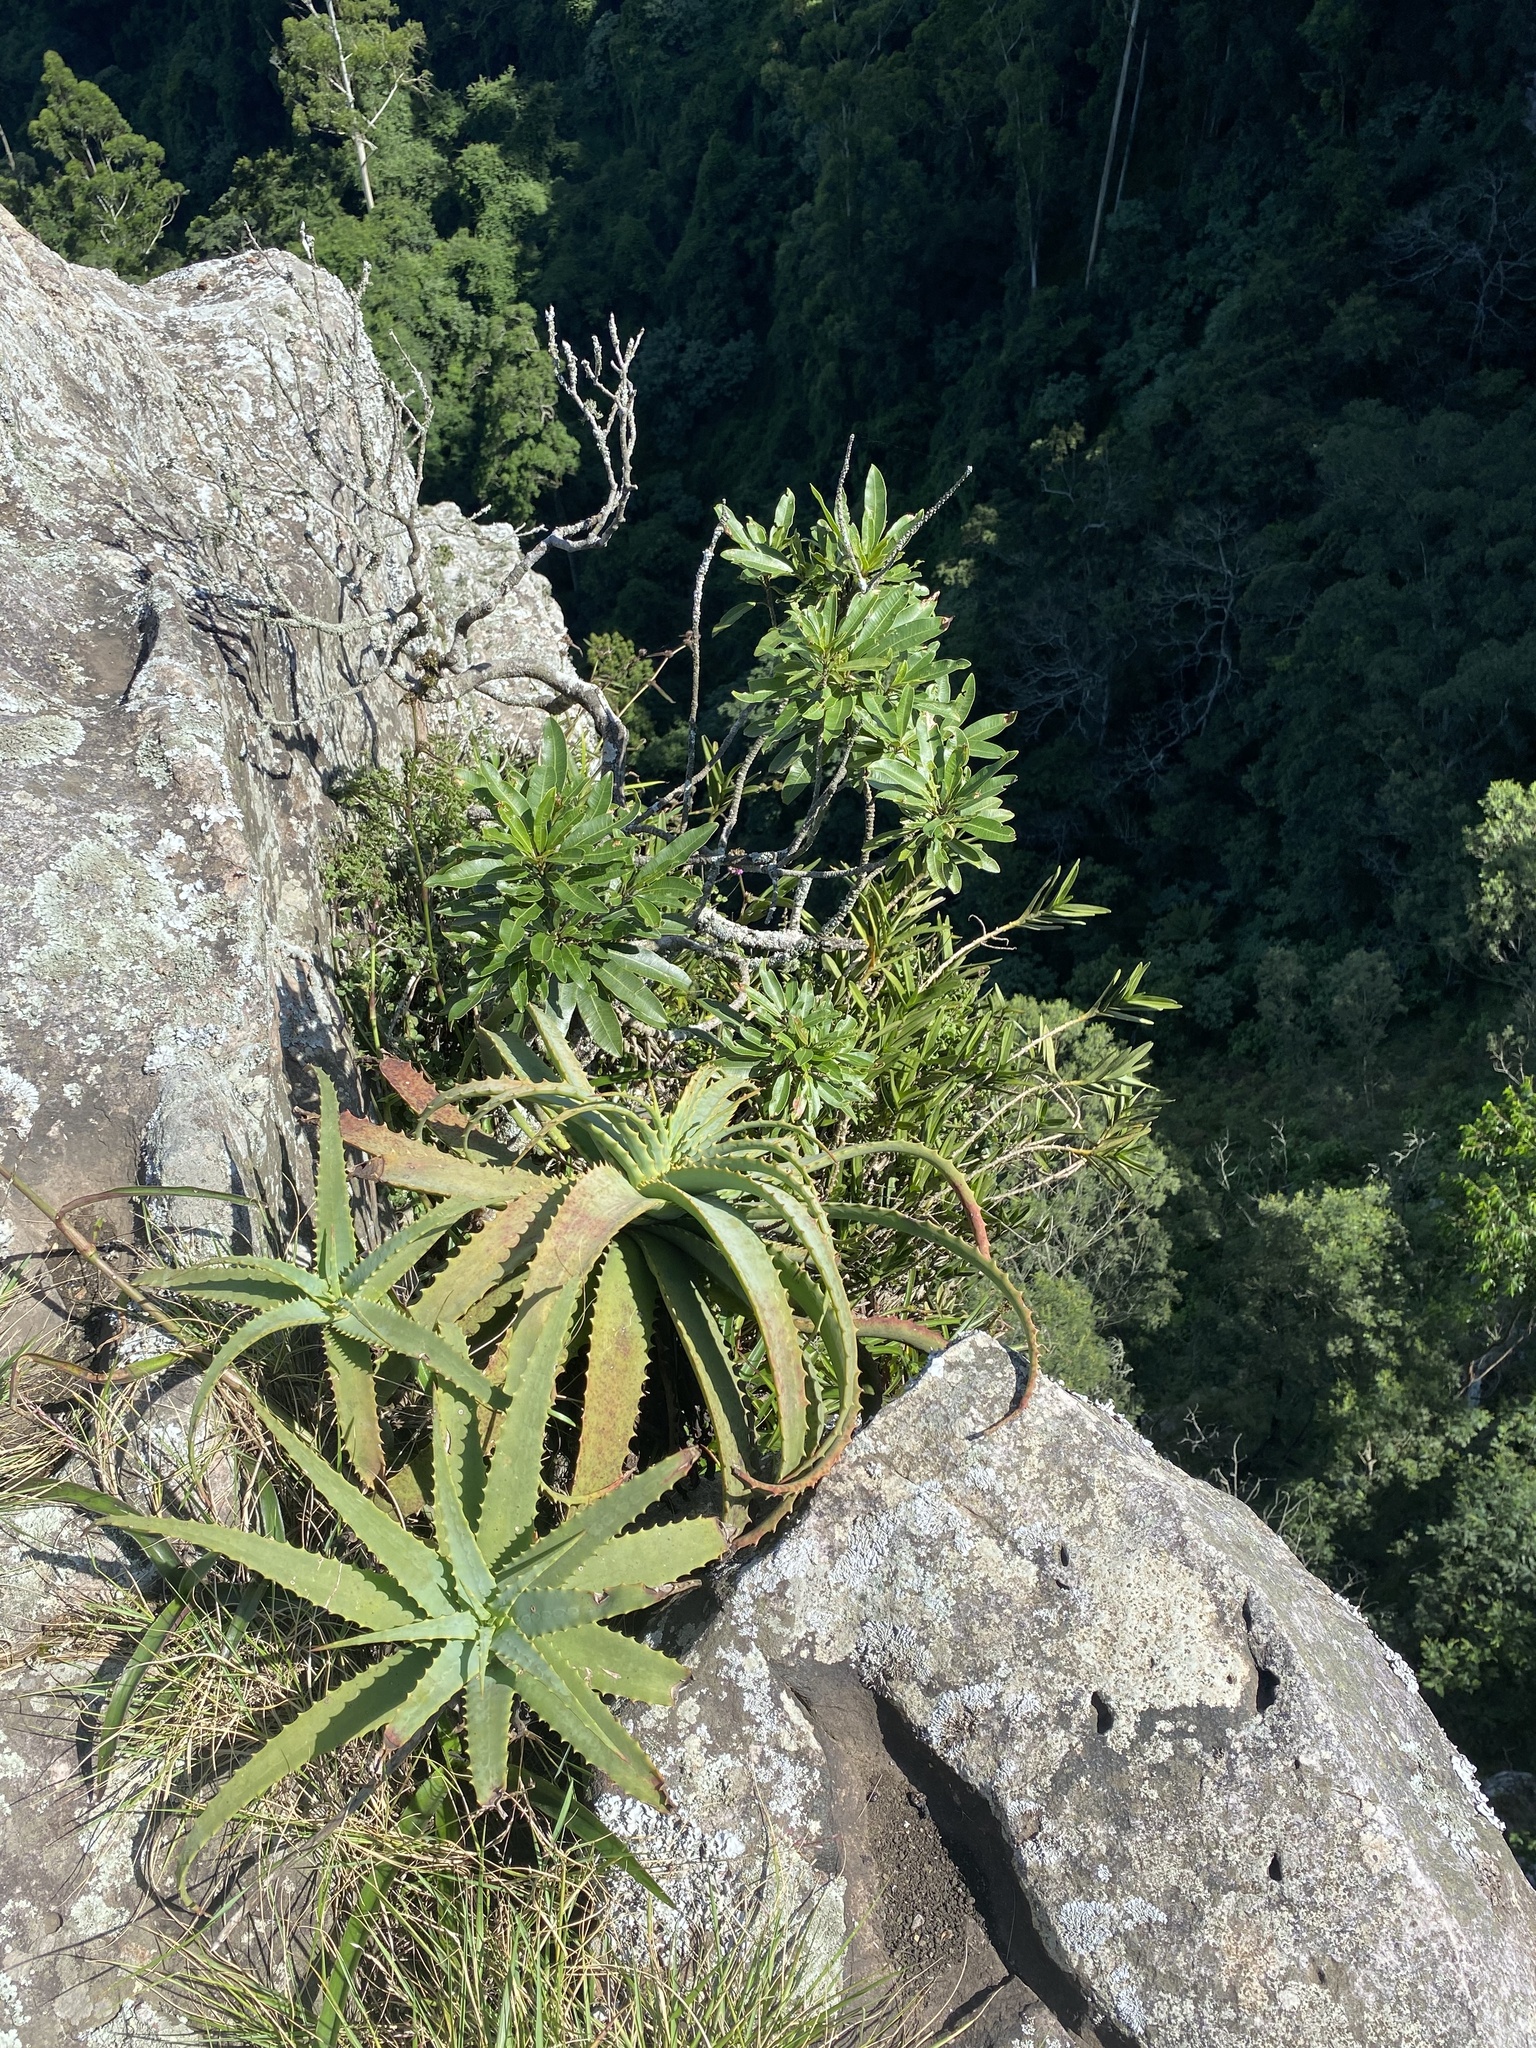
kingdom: Plantae
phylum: Tracheophyta
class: Liliopsida
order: Asparagales
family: Asphodelaceae
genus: Aloe
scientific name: Aloe arborescens
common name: Candelabra aloe
